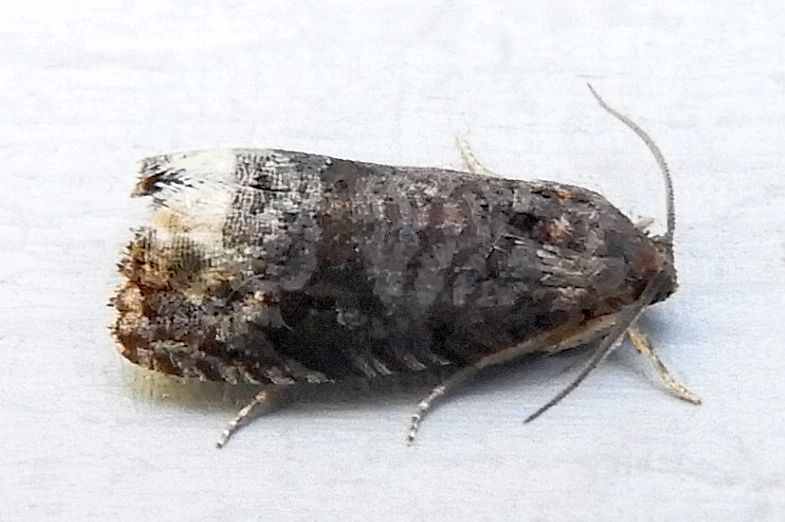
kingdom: Animalia
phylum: Arthropoda
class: Insecta
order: Lepidoptera
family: Tortricidae
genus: Ecdytolopha
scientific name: Ecdytolopha nigrita
